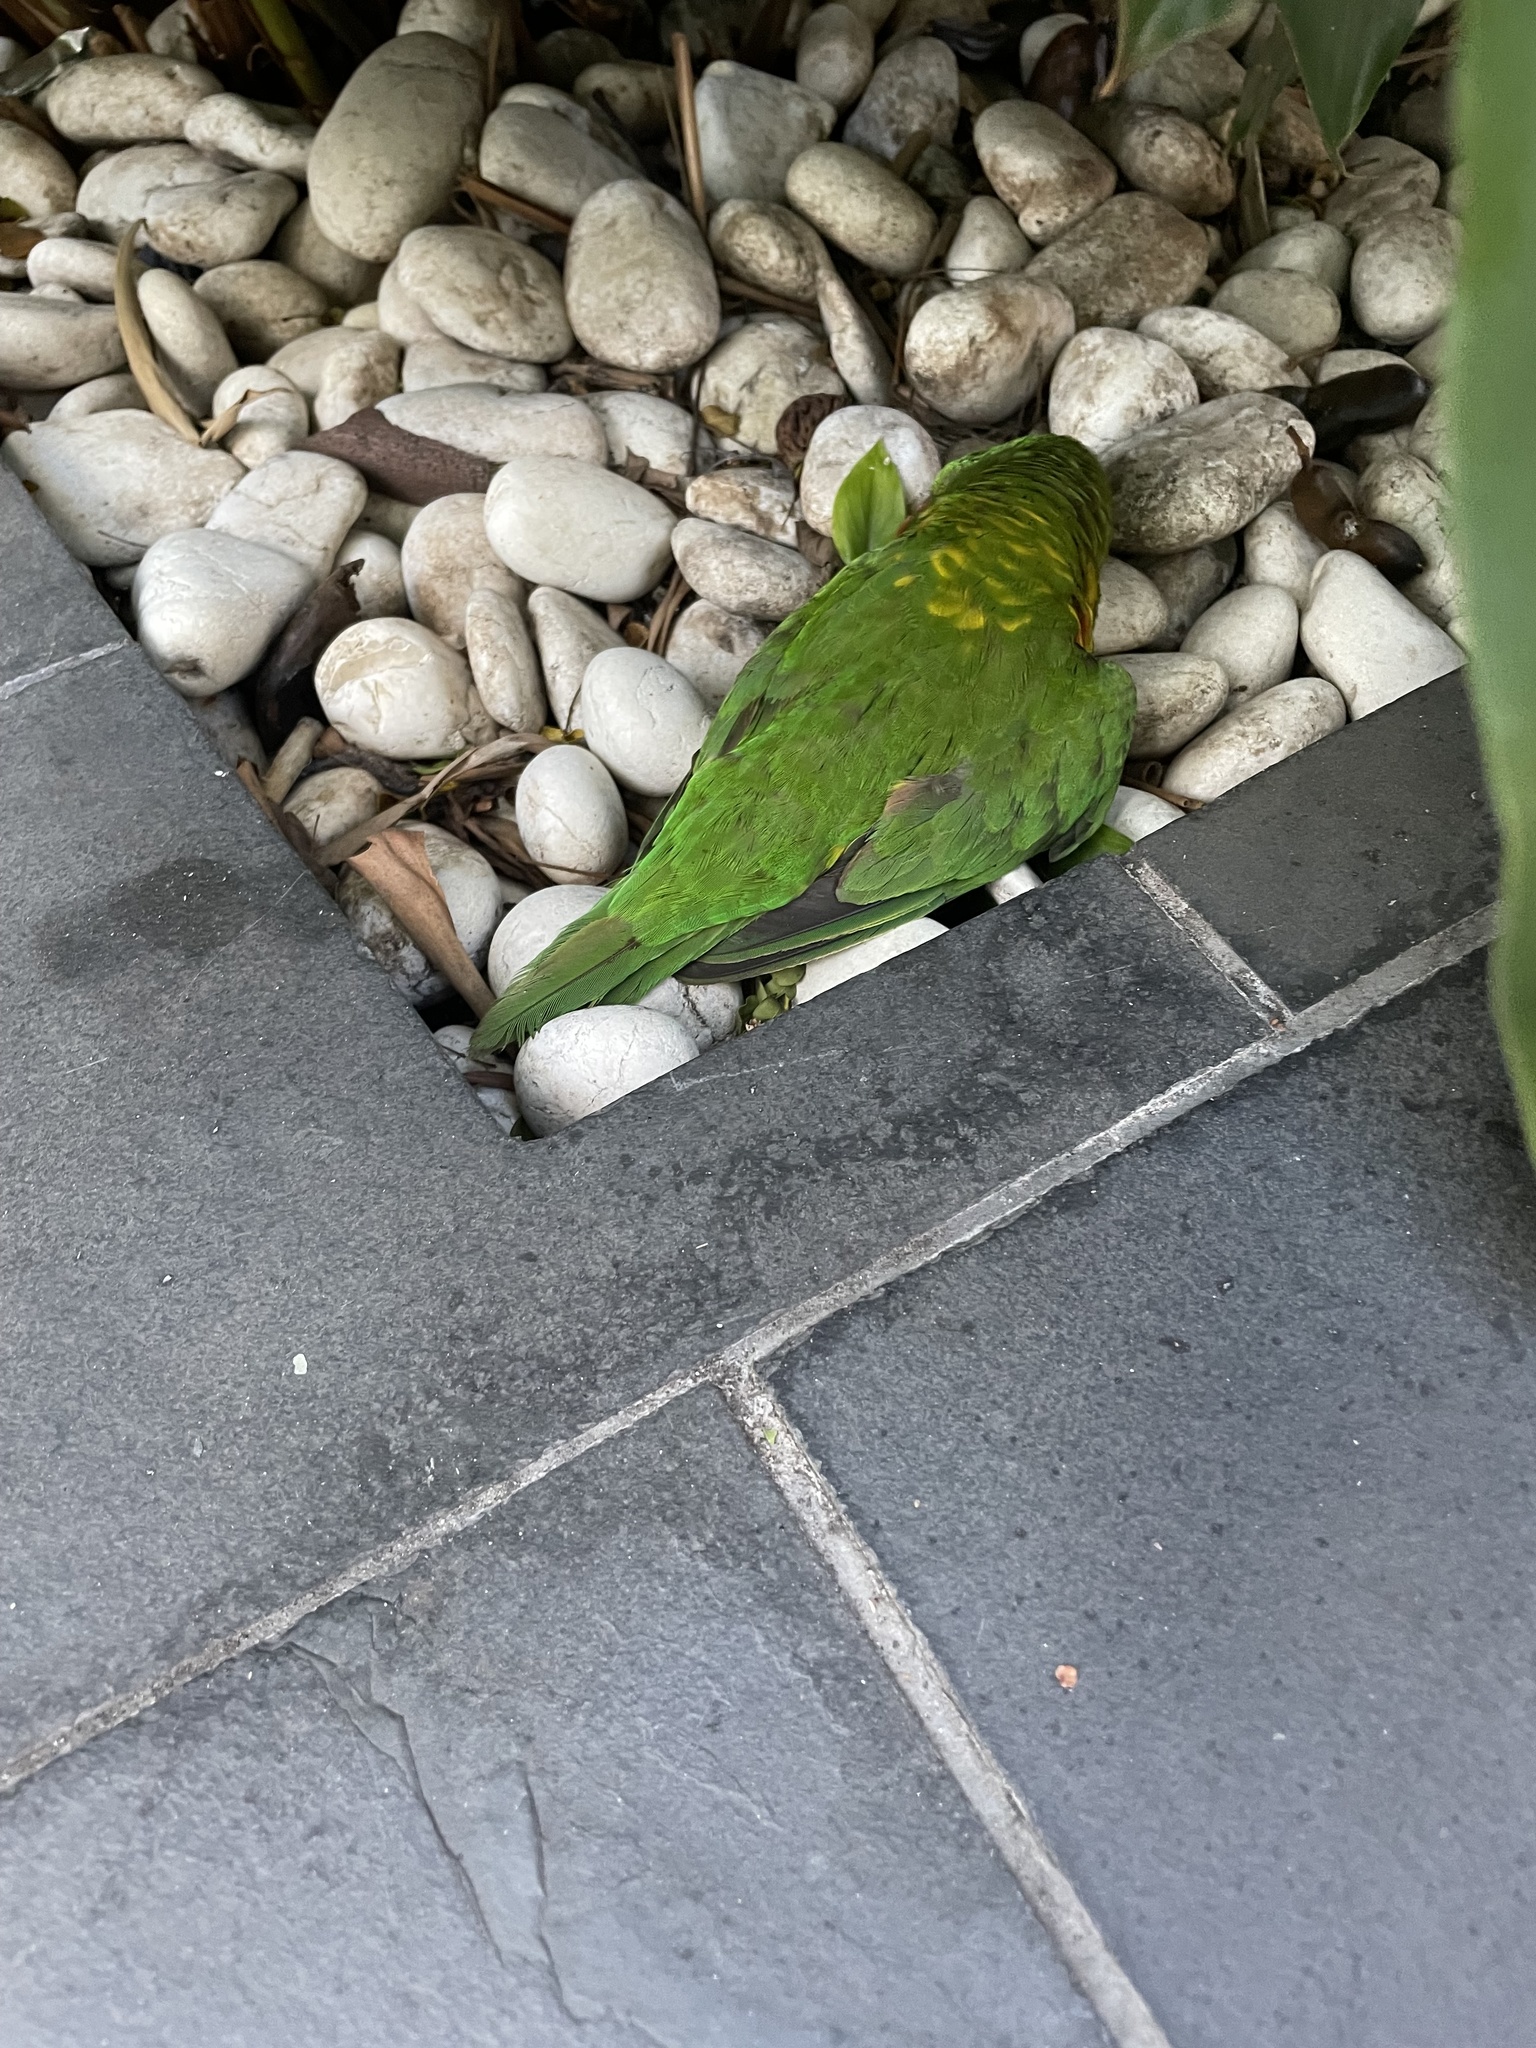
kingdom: Animalia
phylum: Chordata
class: Aves
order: Psittaciformes
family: Psittacidae
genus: Trichoglossus
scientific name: Trichoglossus chlorolepidotus
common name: Scaly-breasted lorikeet
